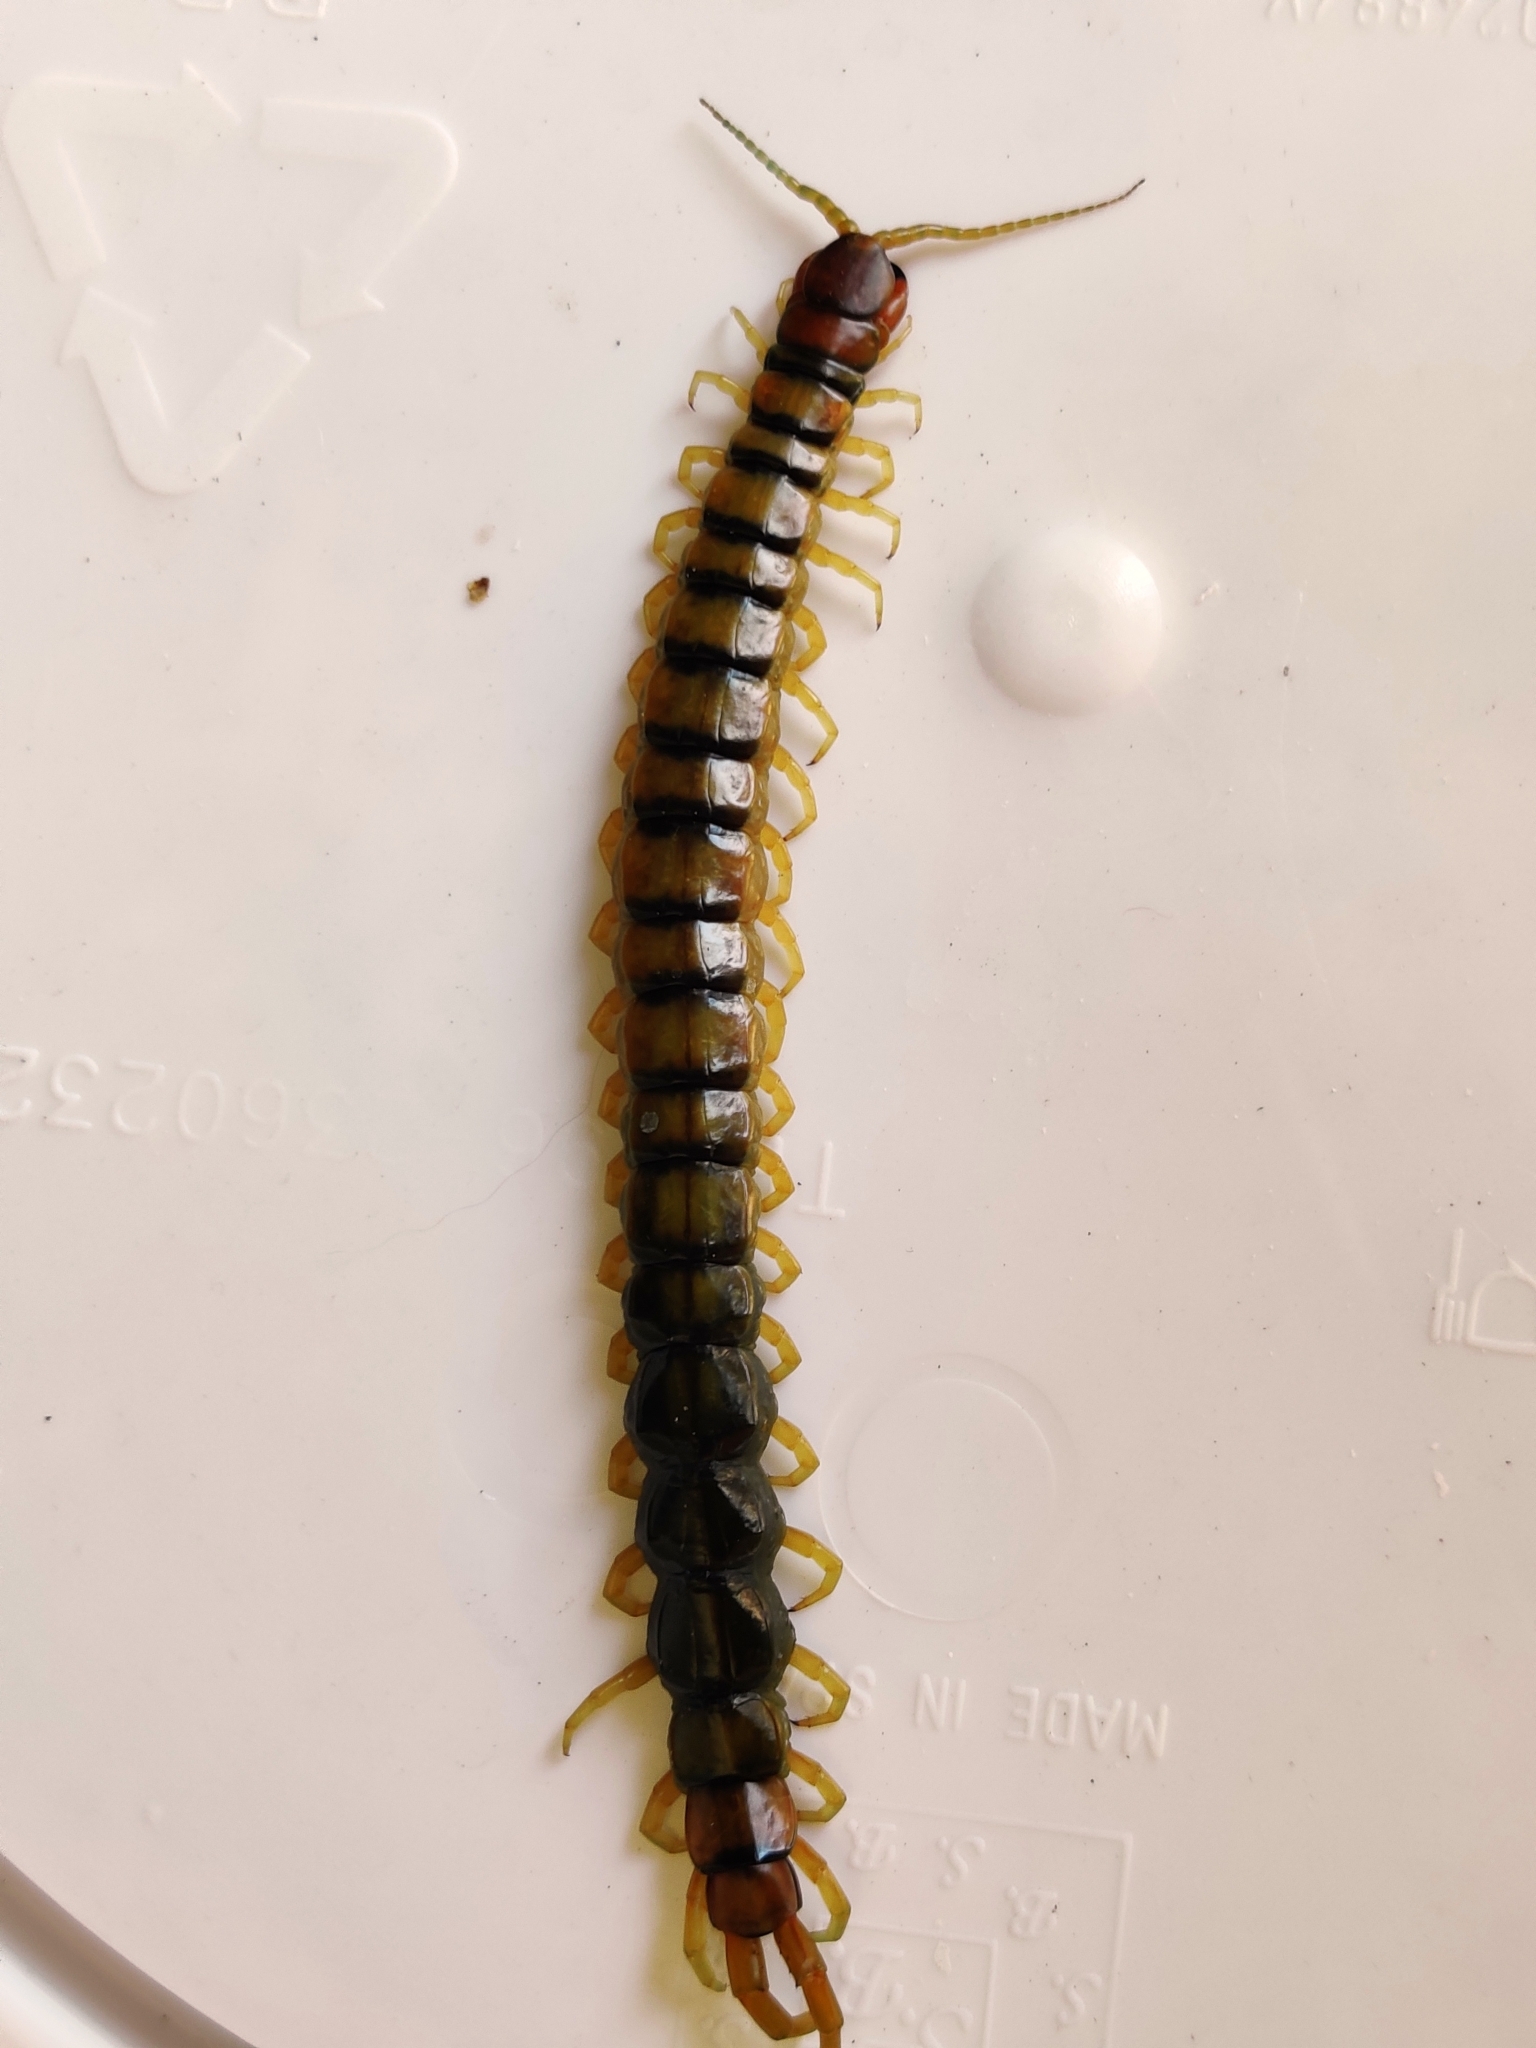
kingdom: Animalia
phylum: Arthropoda
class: Chilopoda
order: Scolopendromorpha
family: Scolopendridae
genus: Scolopendra
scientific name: Scolopendra cingulata
